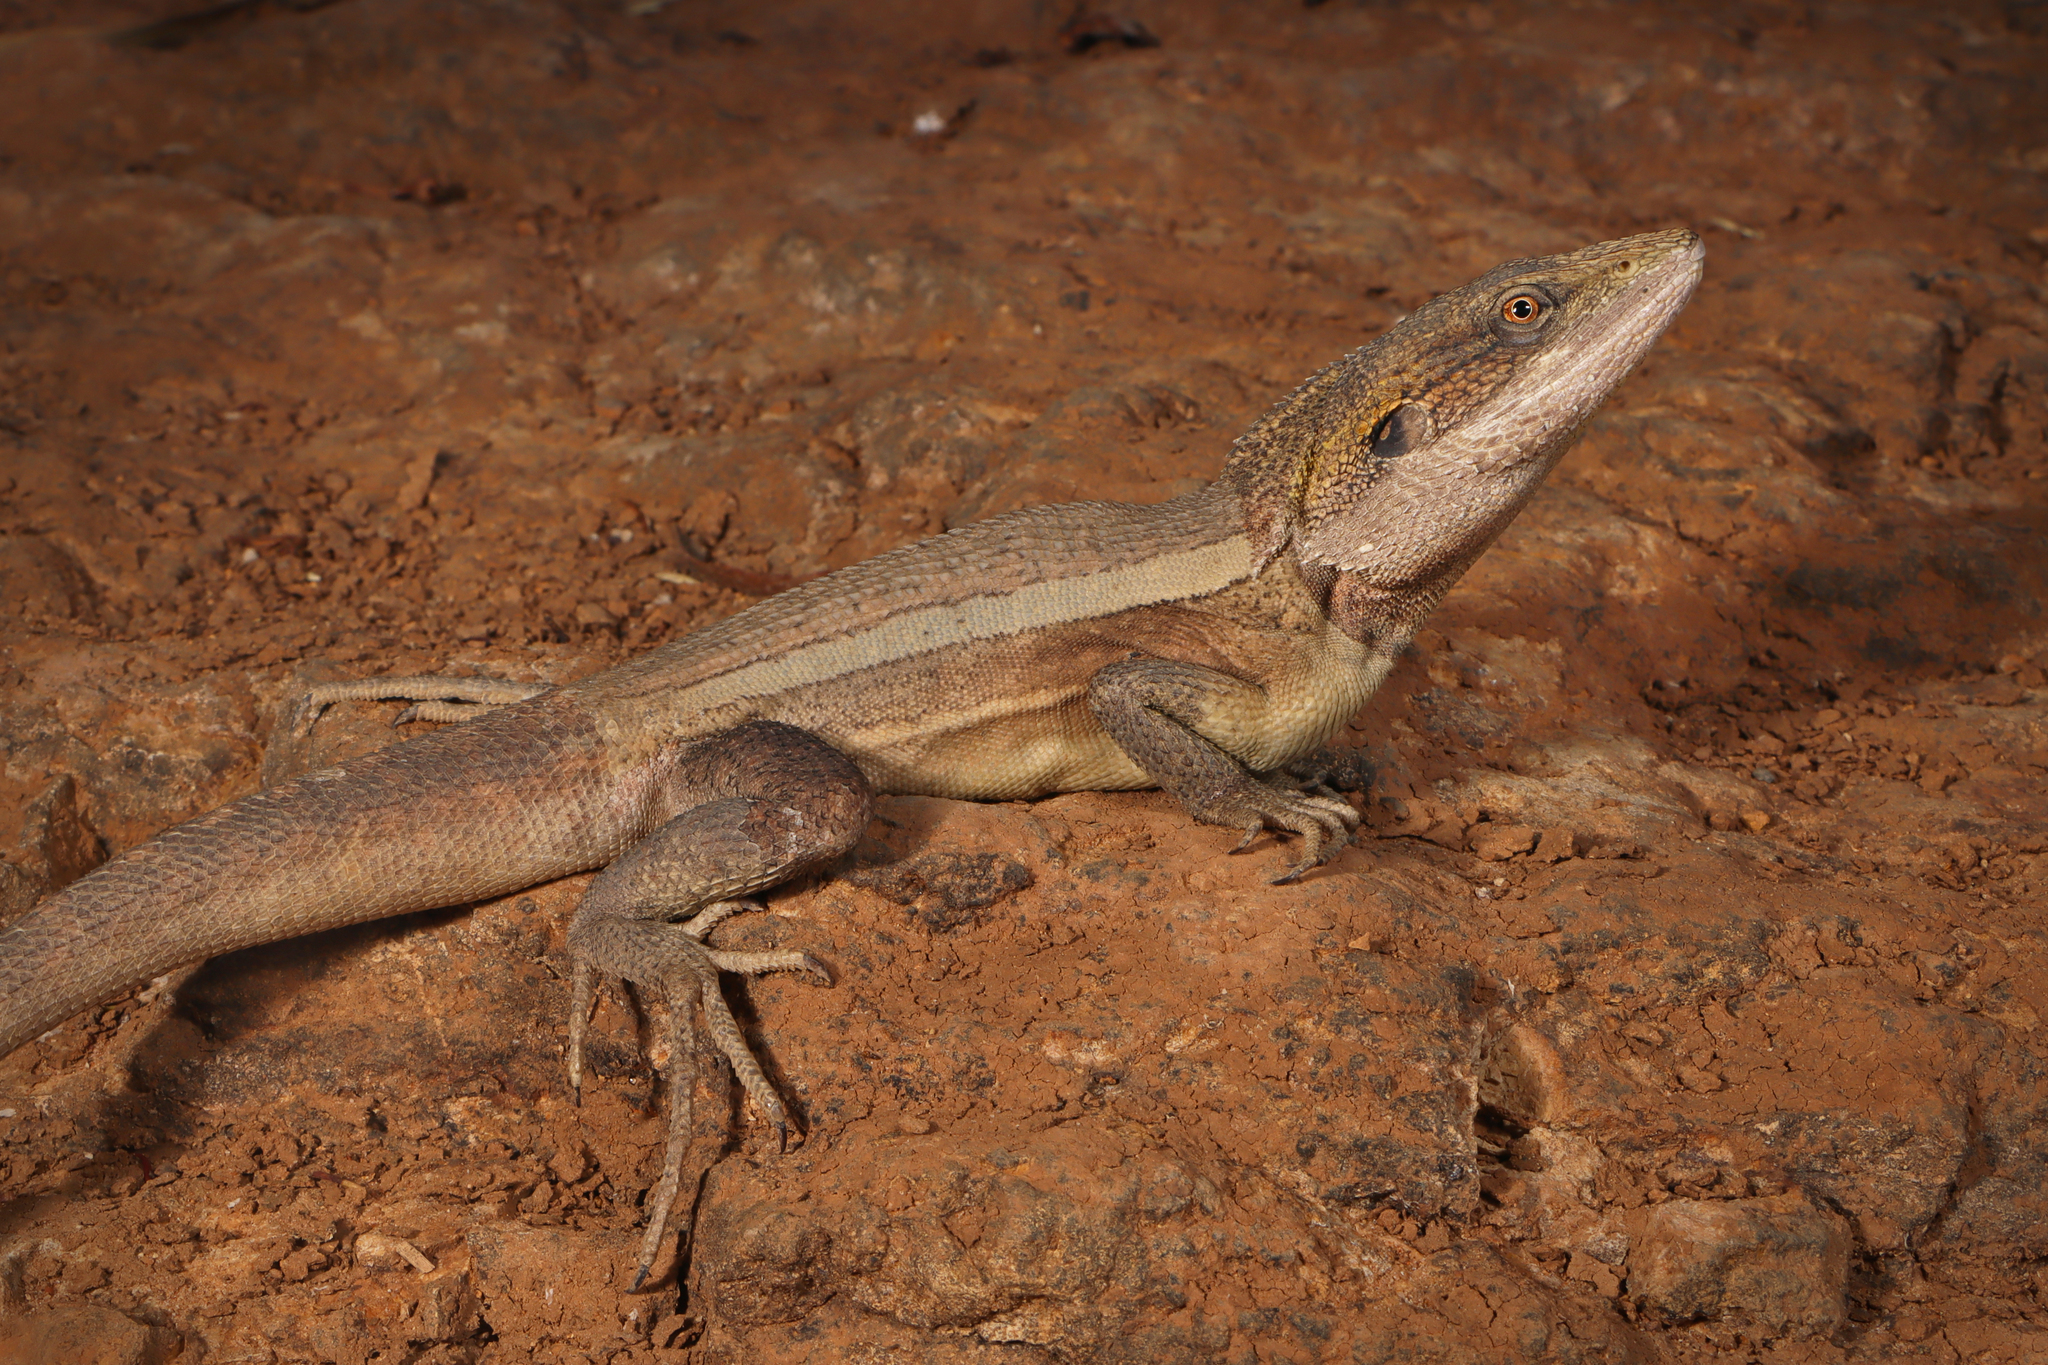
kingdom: Animalia
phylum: Chordata
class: Squamata
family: Agamidae
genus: Lophognathus
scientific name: Lophognathus horneri
